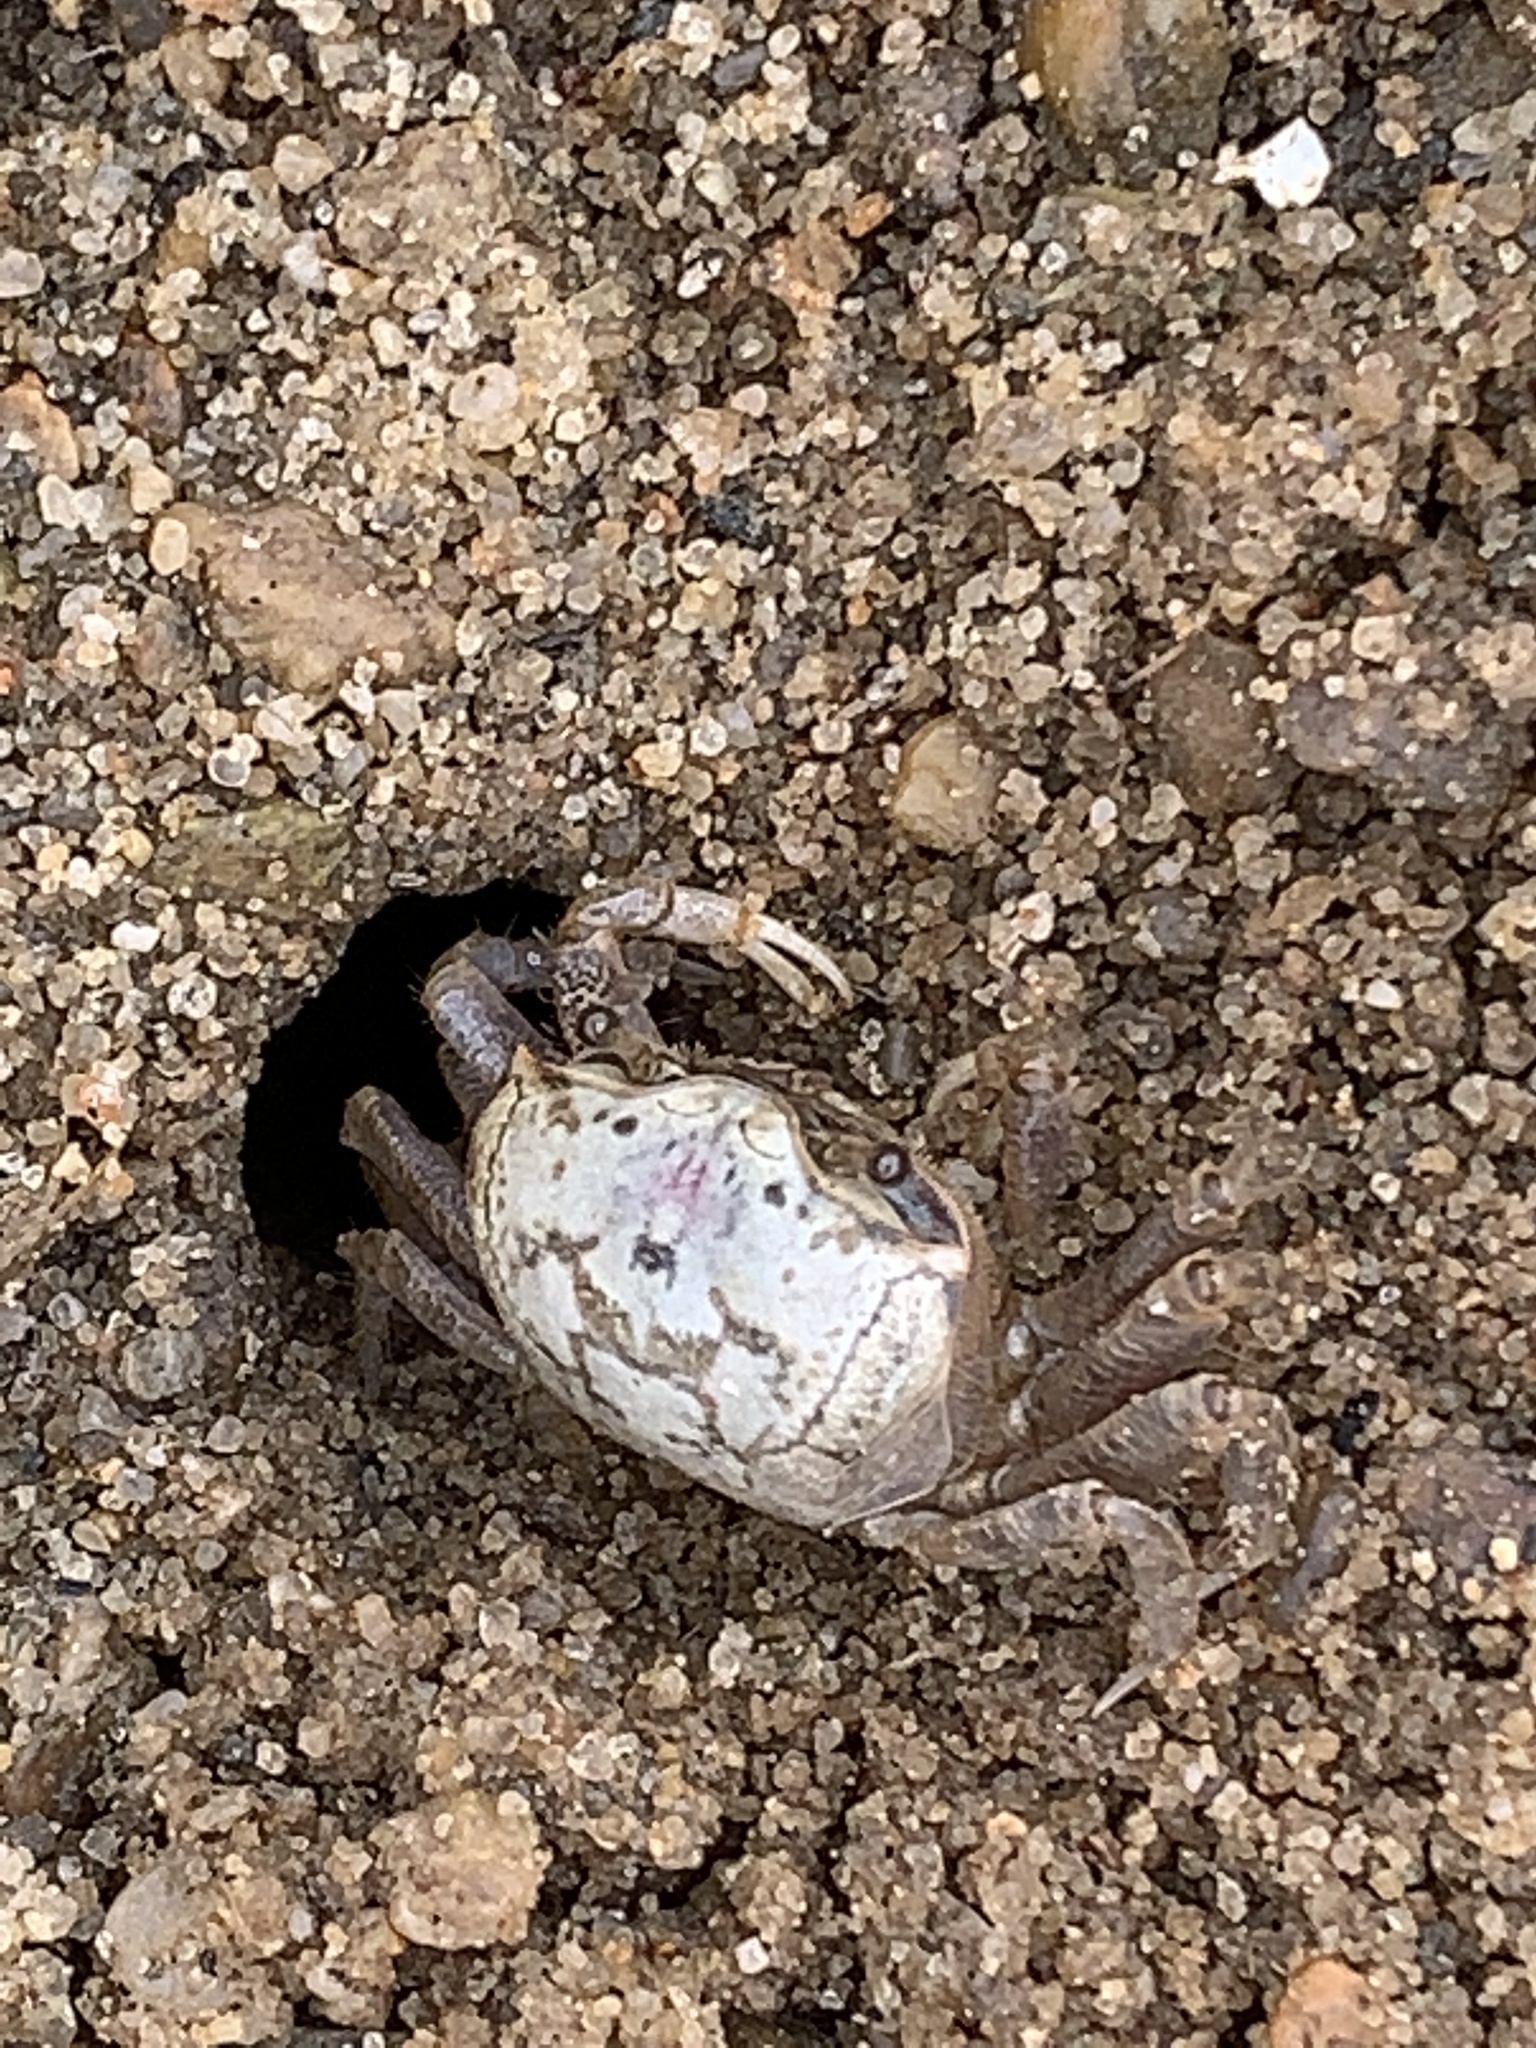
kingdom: Animalia
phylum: Arthropoda
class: Malacostraca
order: Decapoda
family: Ocypodidae
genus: Leptuca
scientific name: Leptuca pugilator
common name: Atlantic sand fiddler crab
